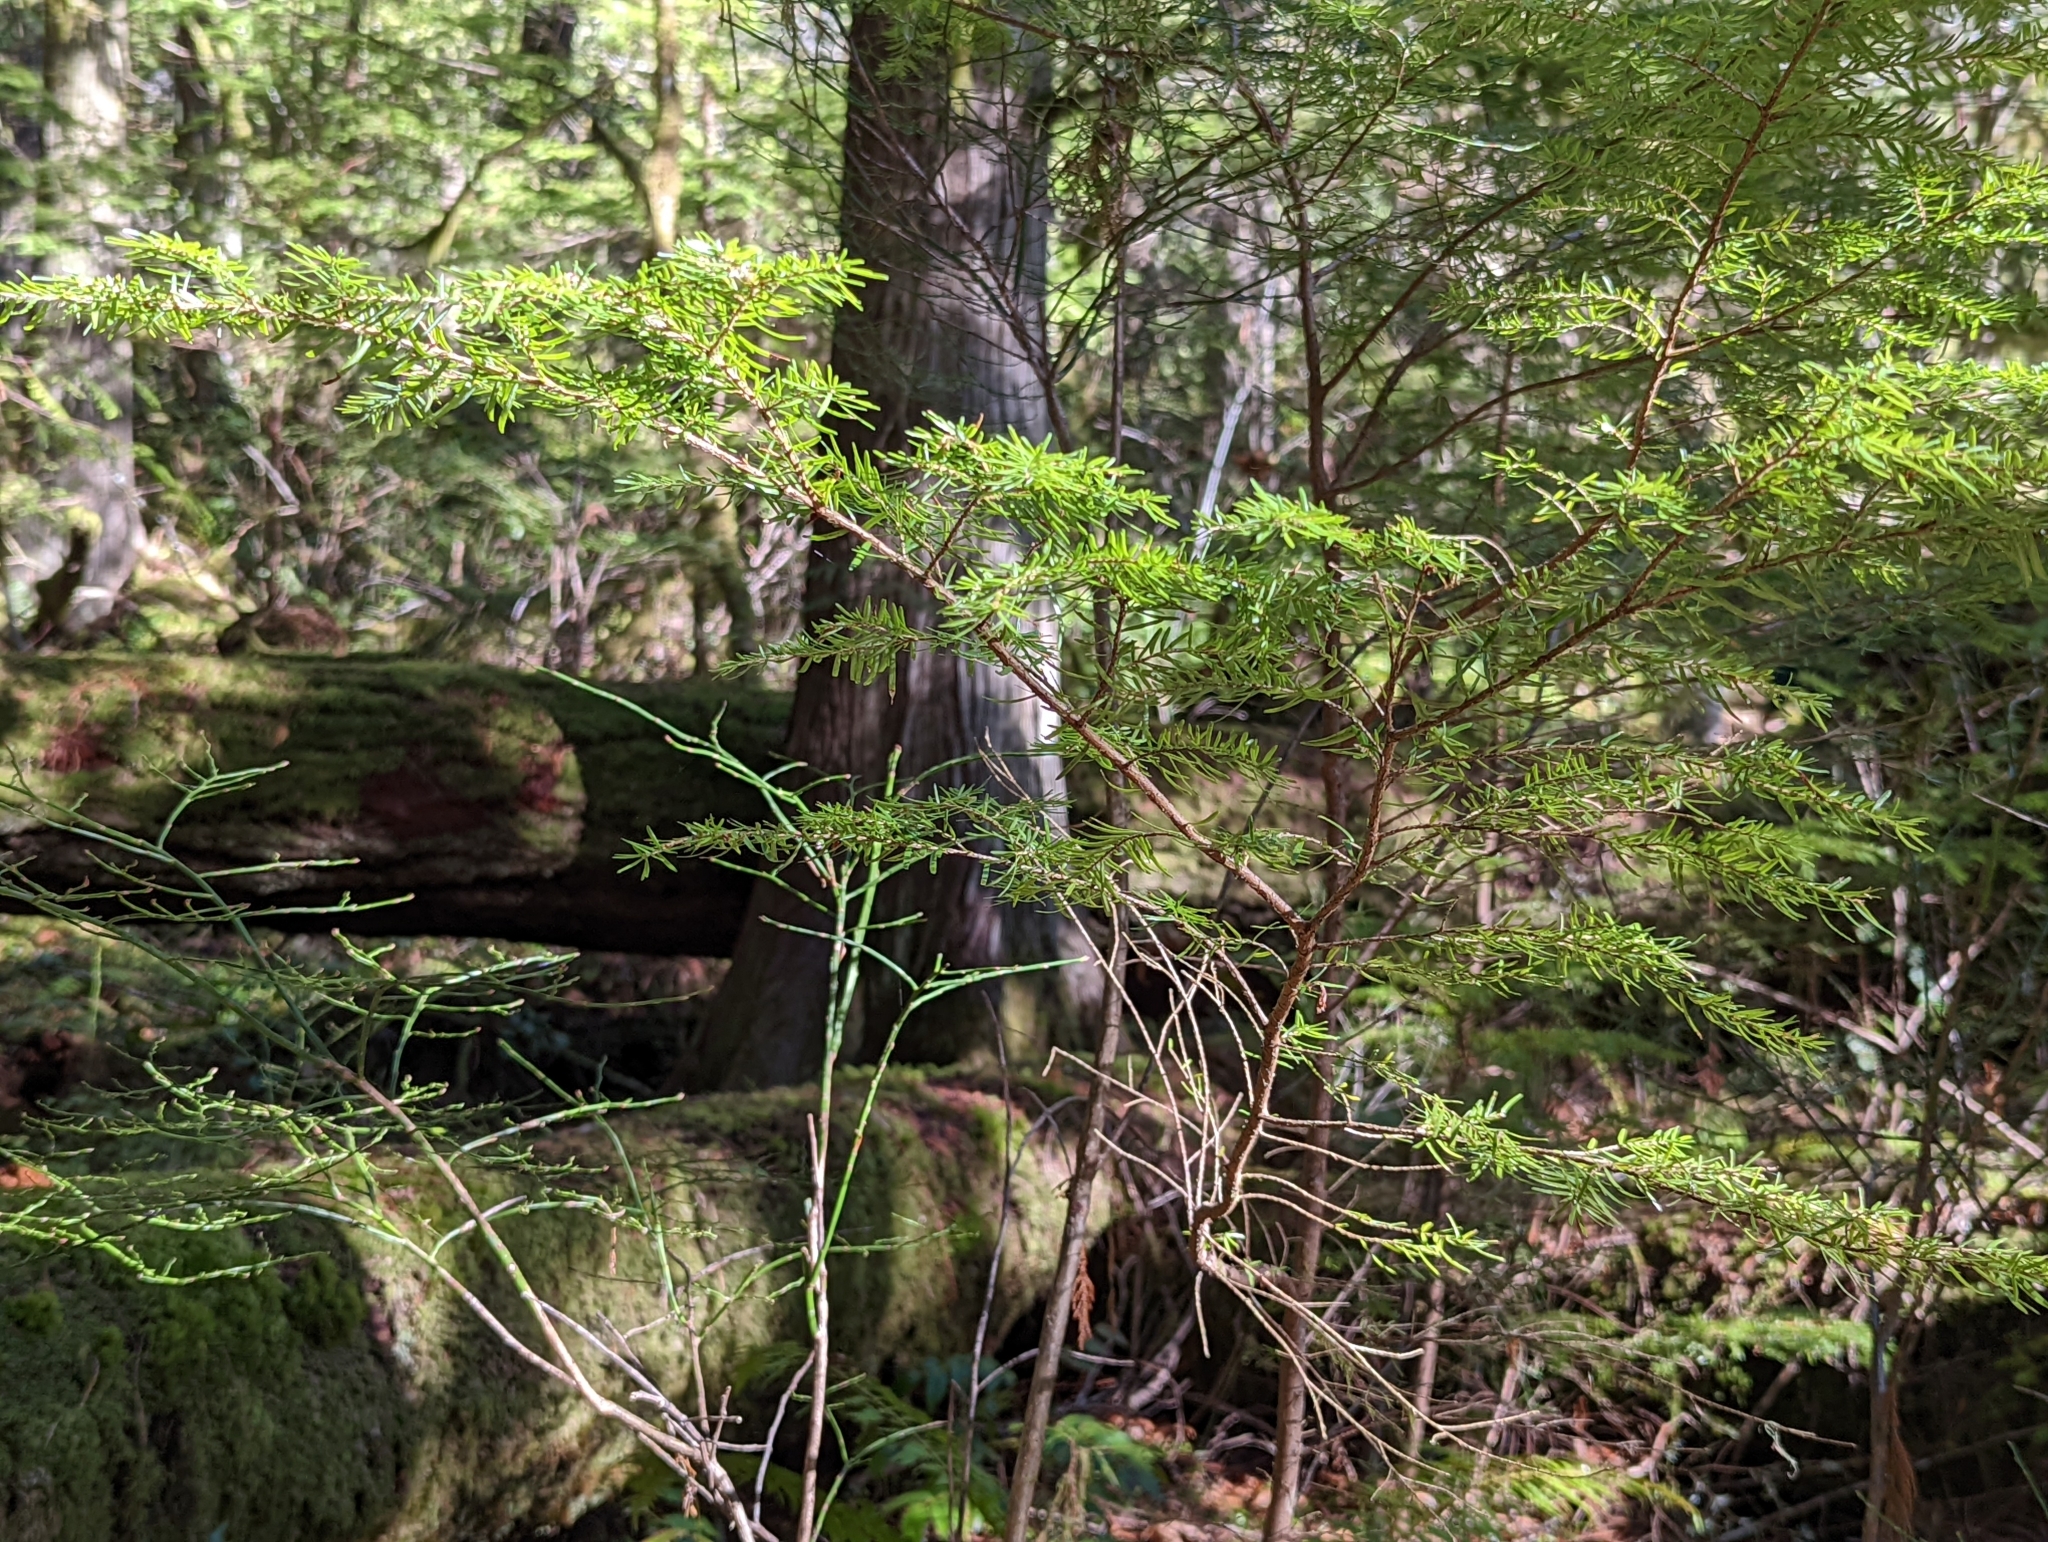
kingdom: Plantae
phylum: Tracheophyta
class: Pinopsida
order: Pinales
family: Pinaceae
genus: Tsuga
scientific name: Tsuga heterophylla
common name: Western hemlock
